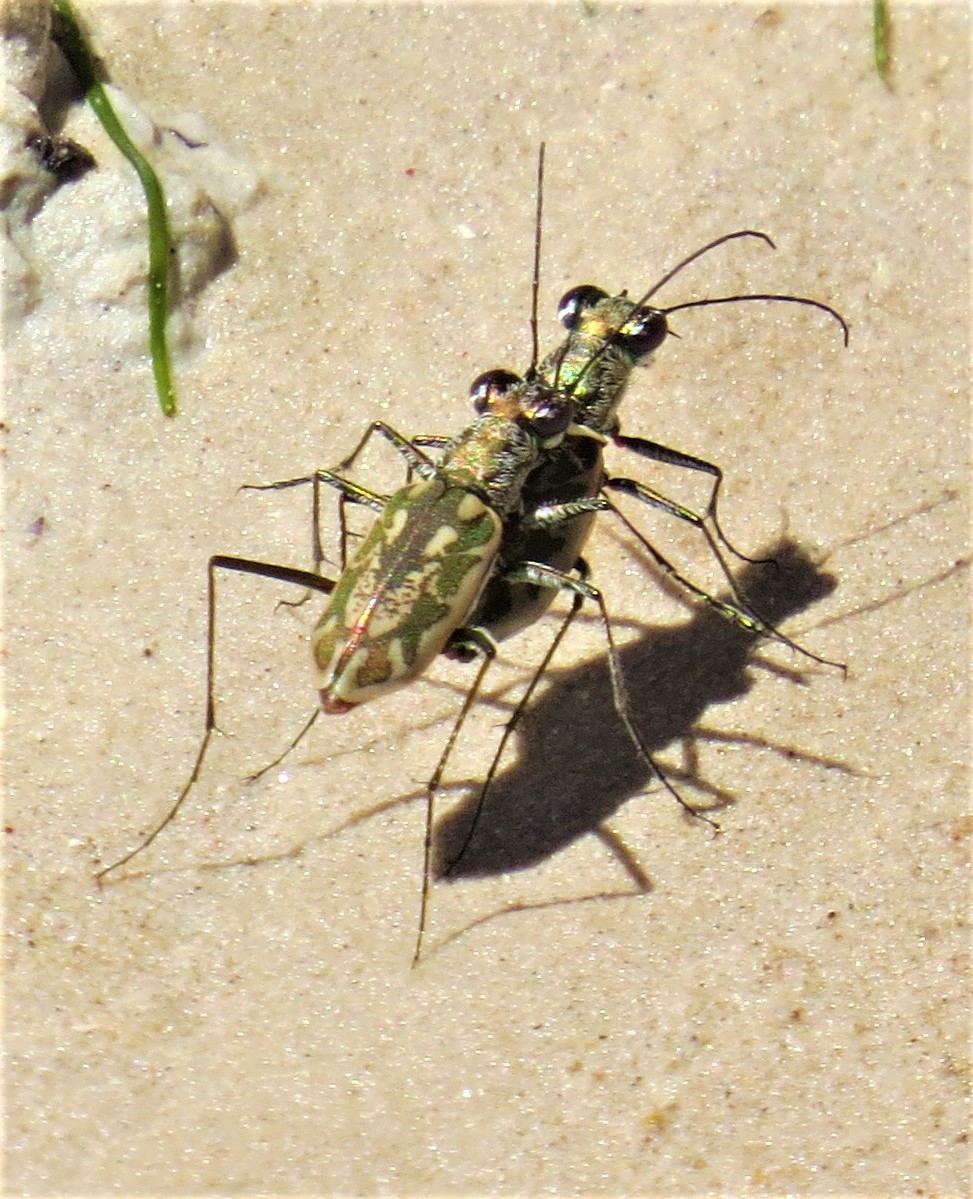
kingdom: Animalia
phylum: Arthropoda
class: Insecta
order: Coleoptera
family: Carabidae
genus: Ellipsoptera
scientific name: Ellipsoptera hamata
